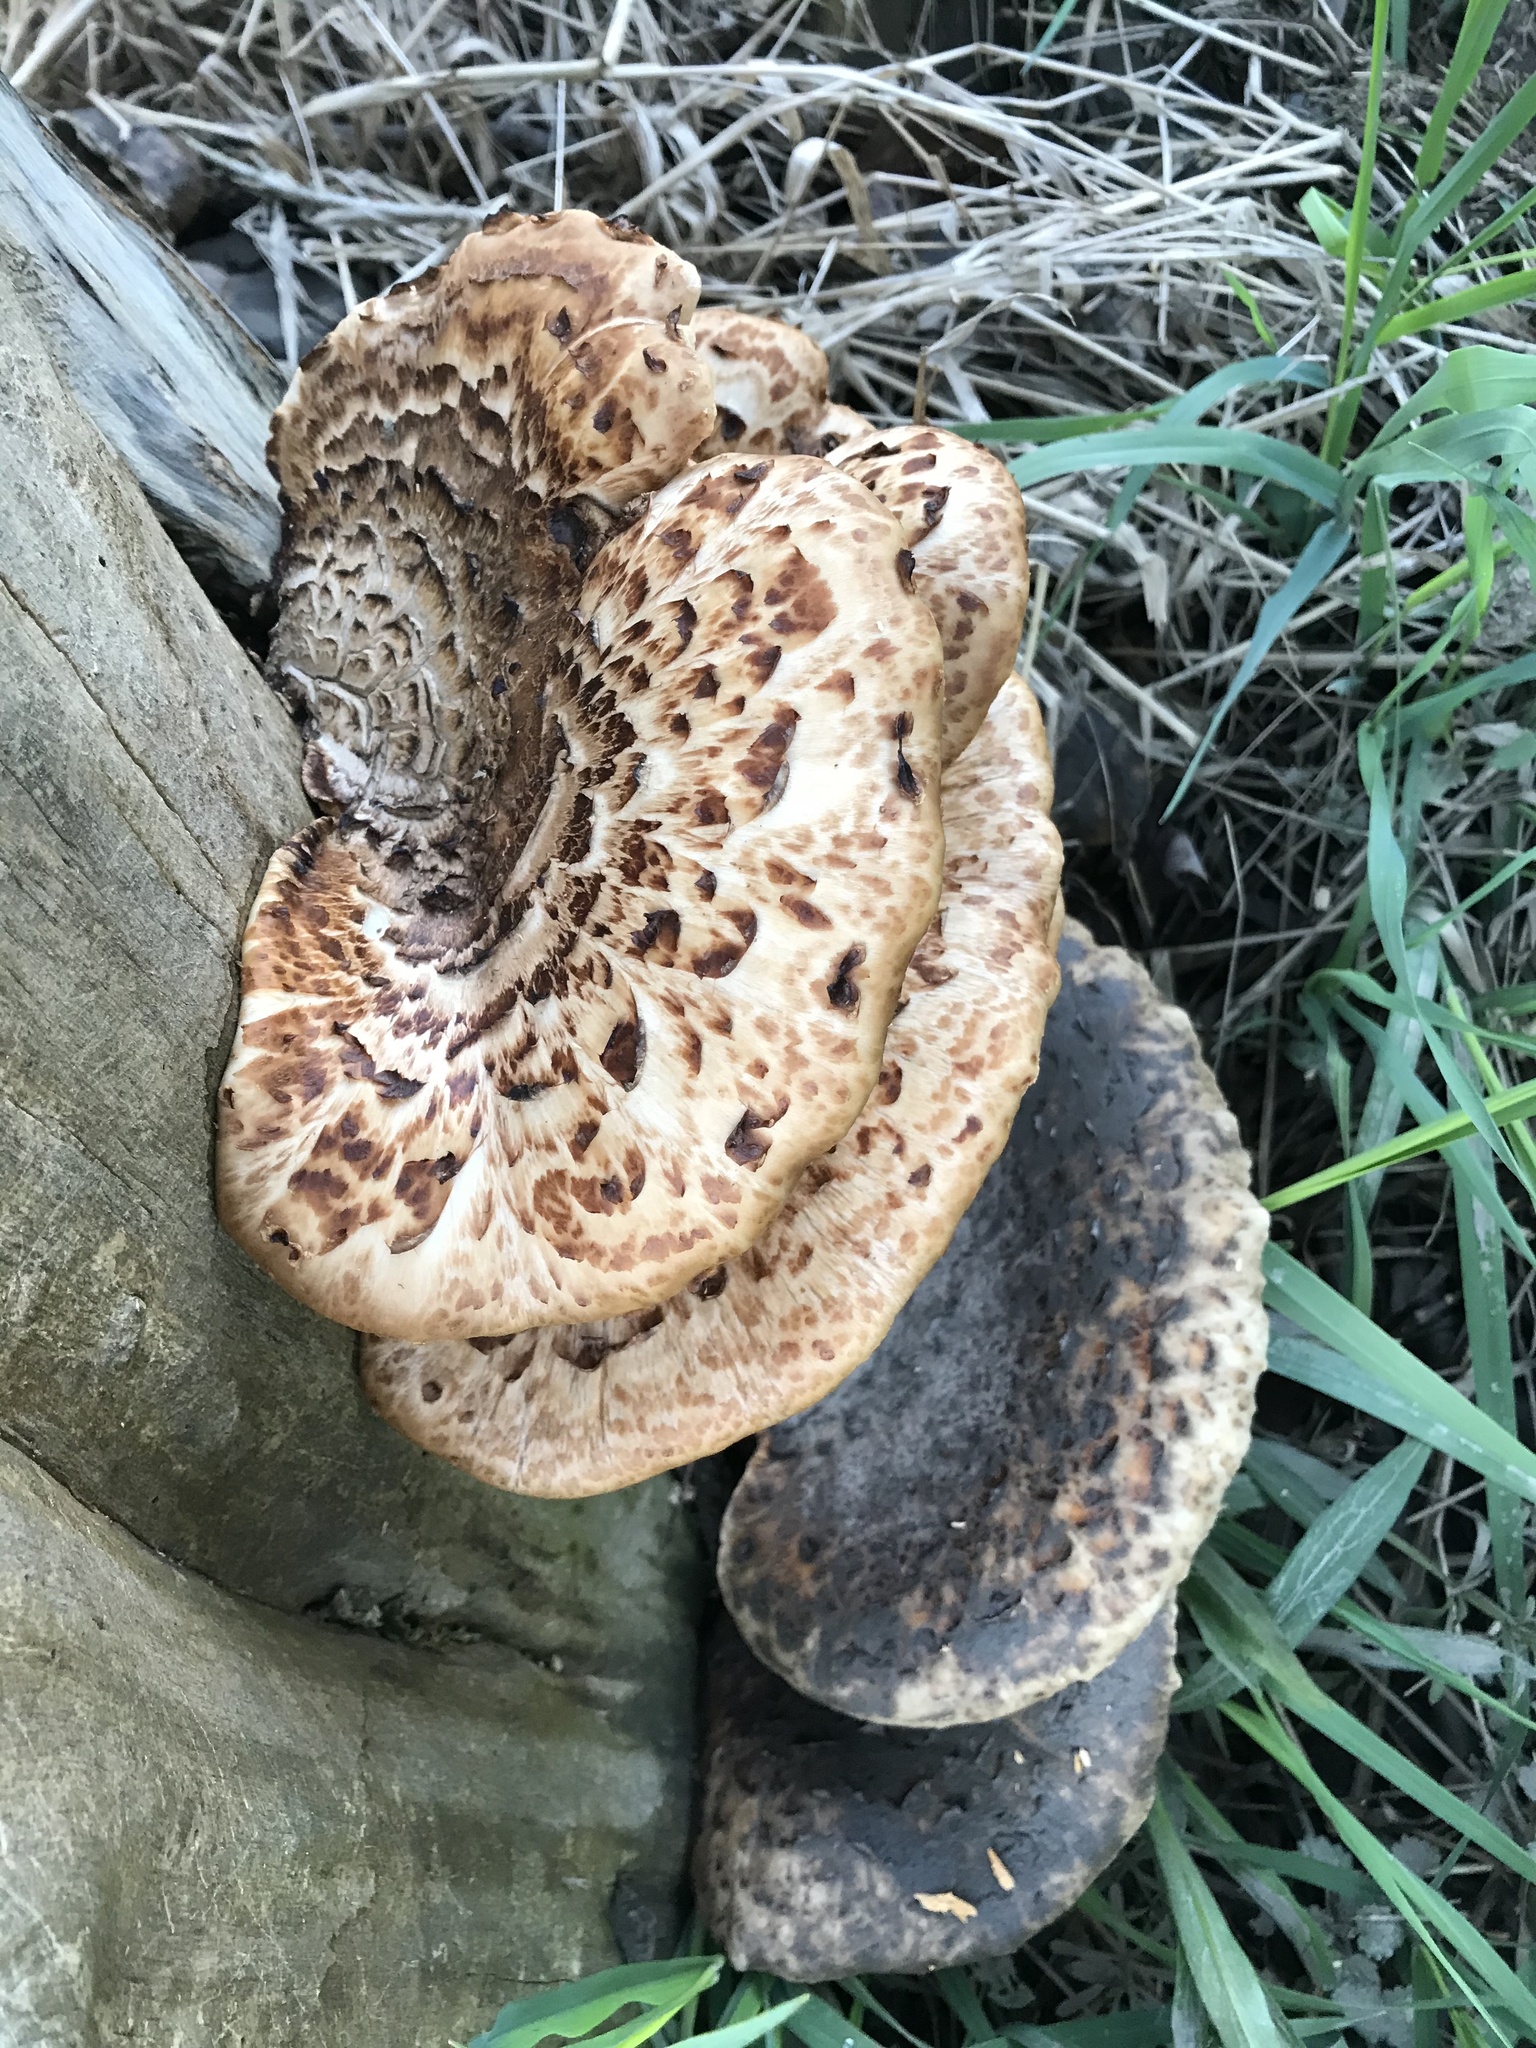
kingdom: Fungi
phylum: Basidiomycota
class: Agaricomycetes
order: Polyporales
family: Polyporaceae
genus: Cerioporus
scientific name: Cerioporus squamosus
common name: Dryad's saddle
